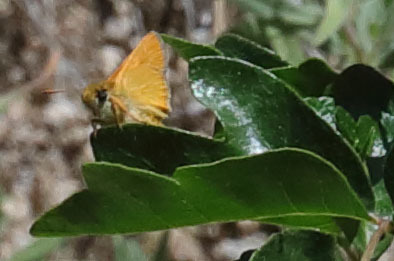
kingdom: Animalia
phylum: Arthropoda
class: Insecta
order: Lepidoptera
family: Hesperiidae
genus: Ochlodes
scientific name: Ochlodes agricola
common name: Rural skipper
